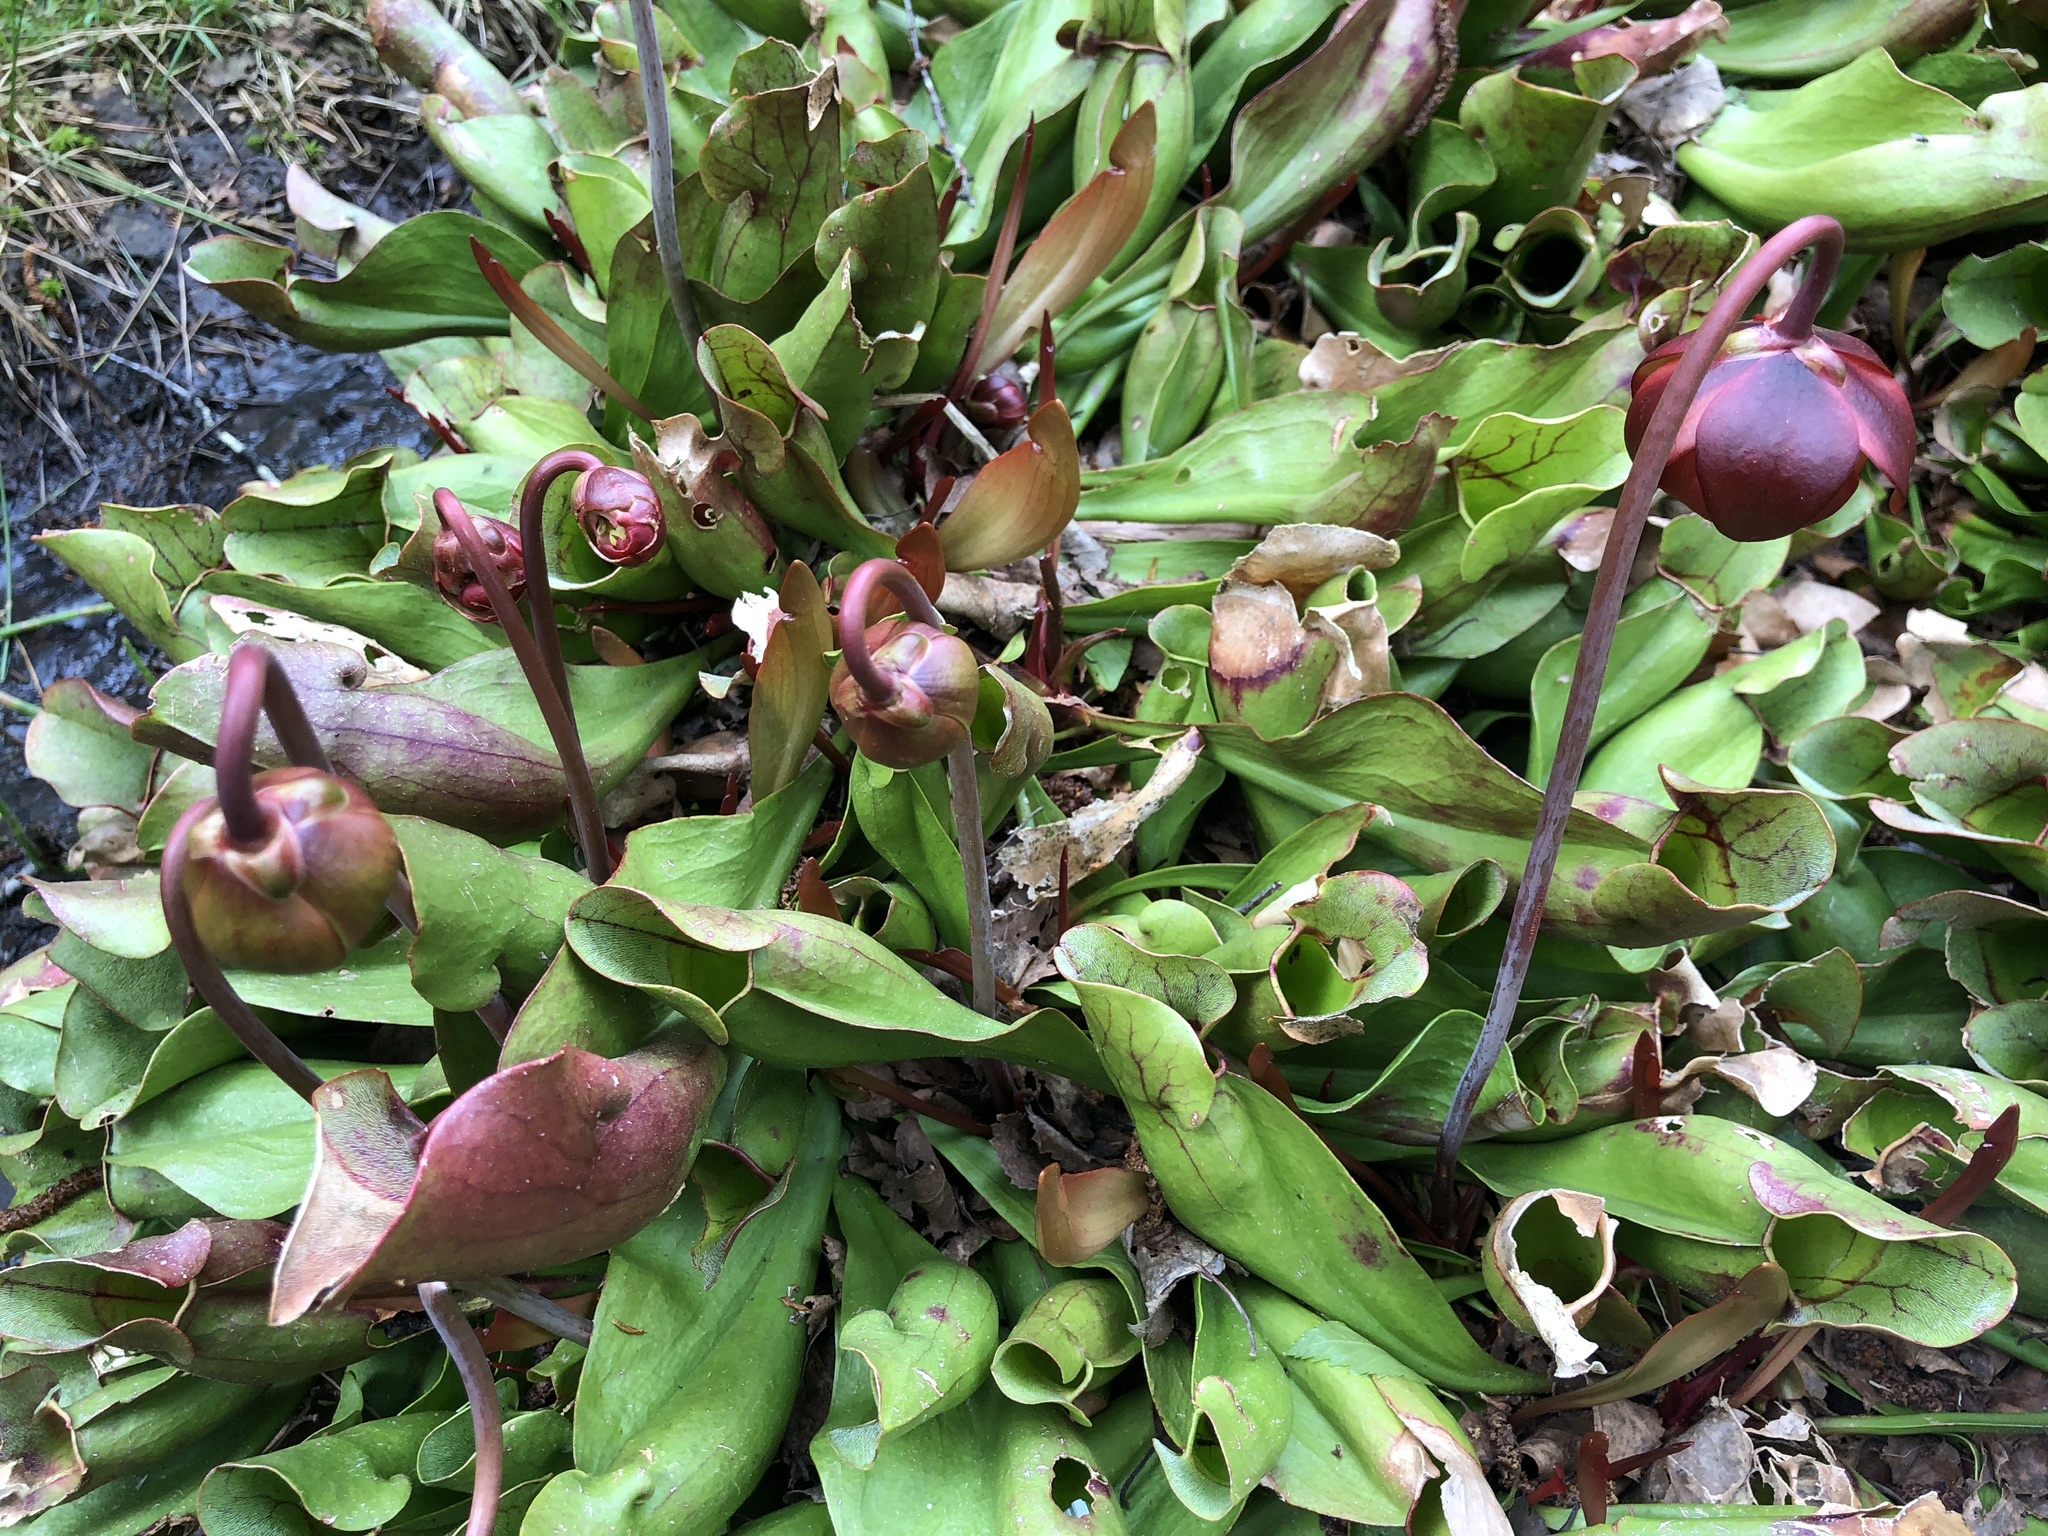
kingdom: Plantae
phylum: Tracheophyta
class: Magnoliopsida
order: Ericales
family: Sarraceniaceae
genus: Sarracenia
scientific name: Sarracenia purpurea
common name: Pitcherplant
